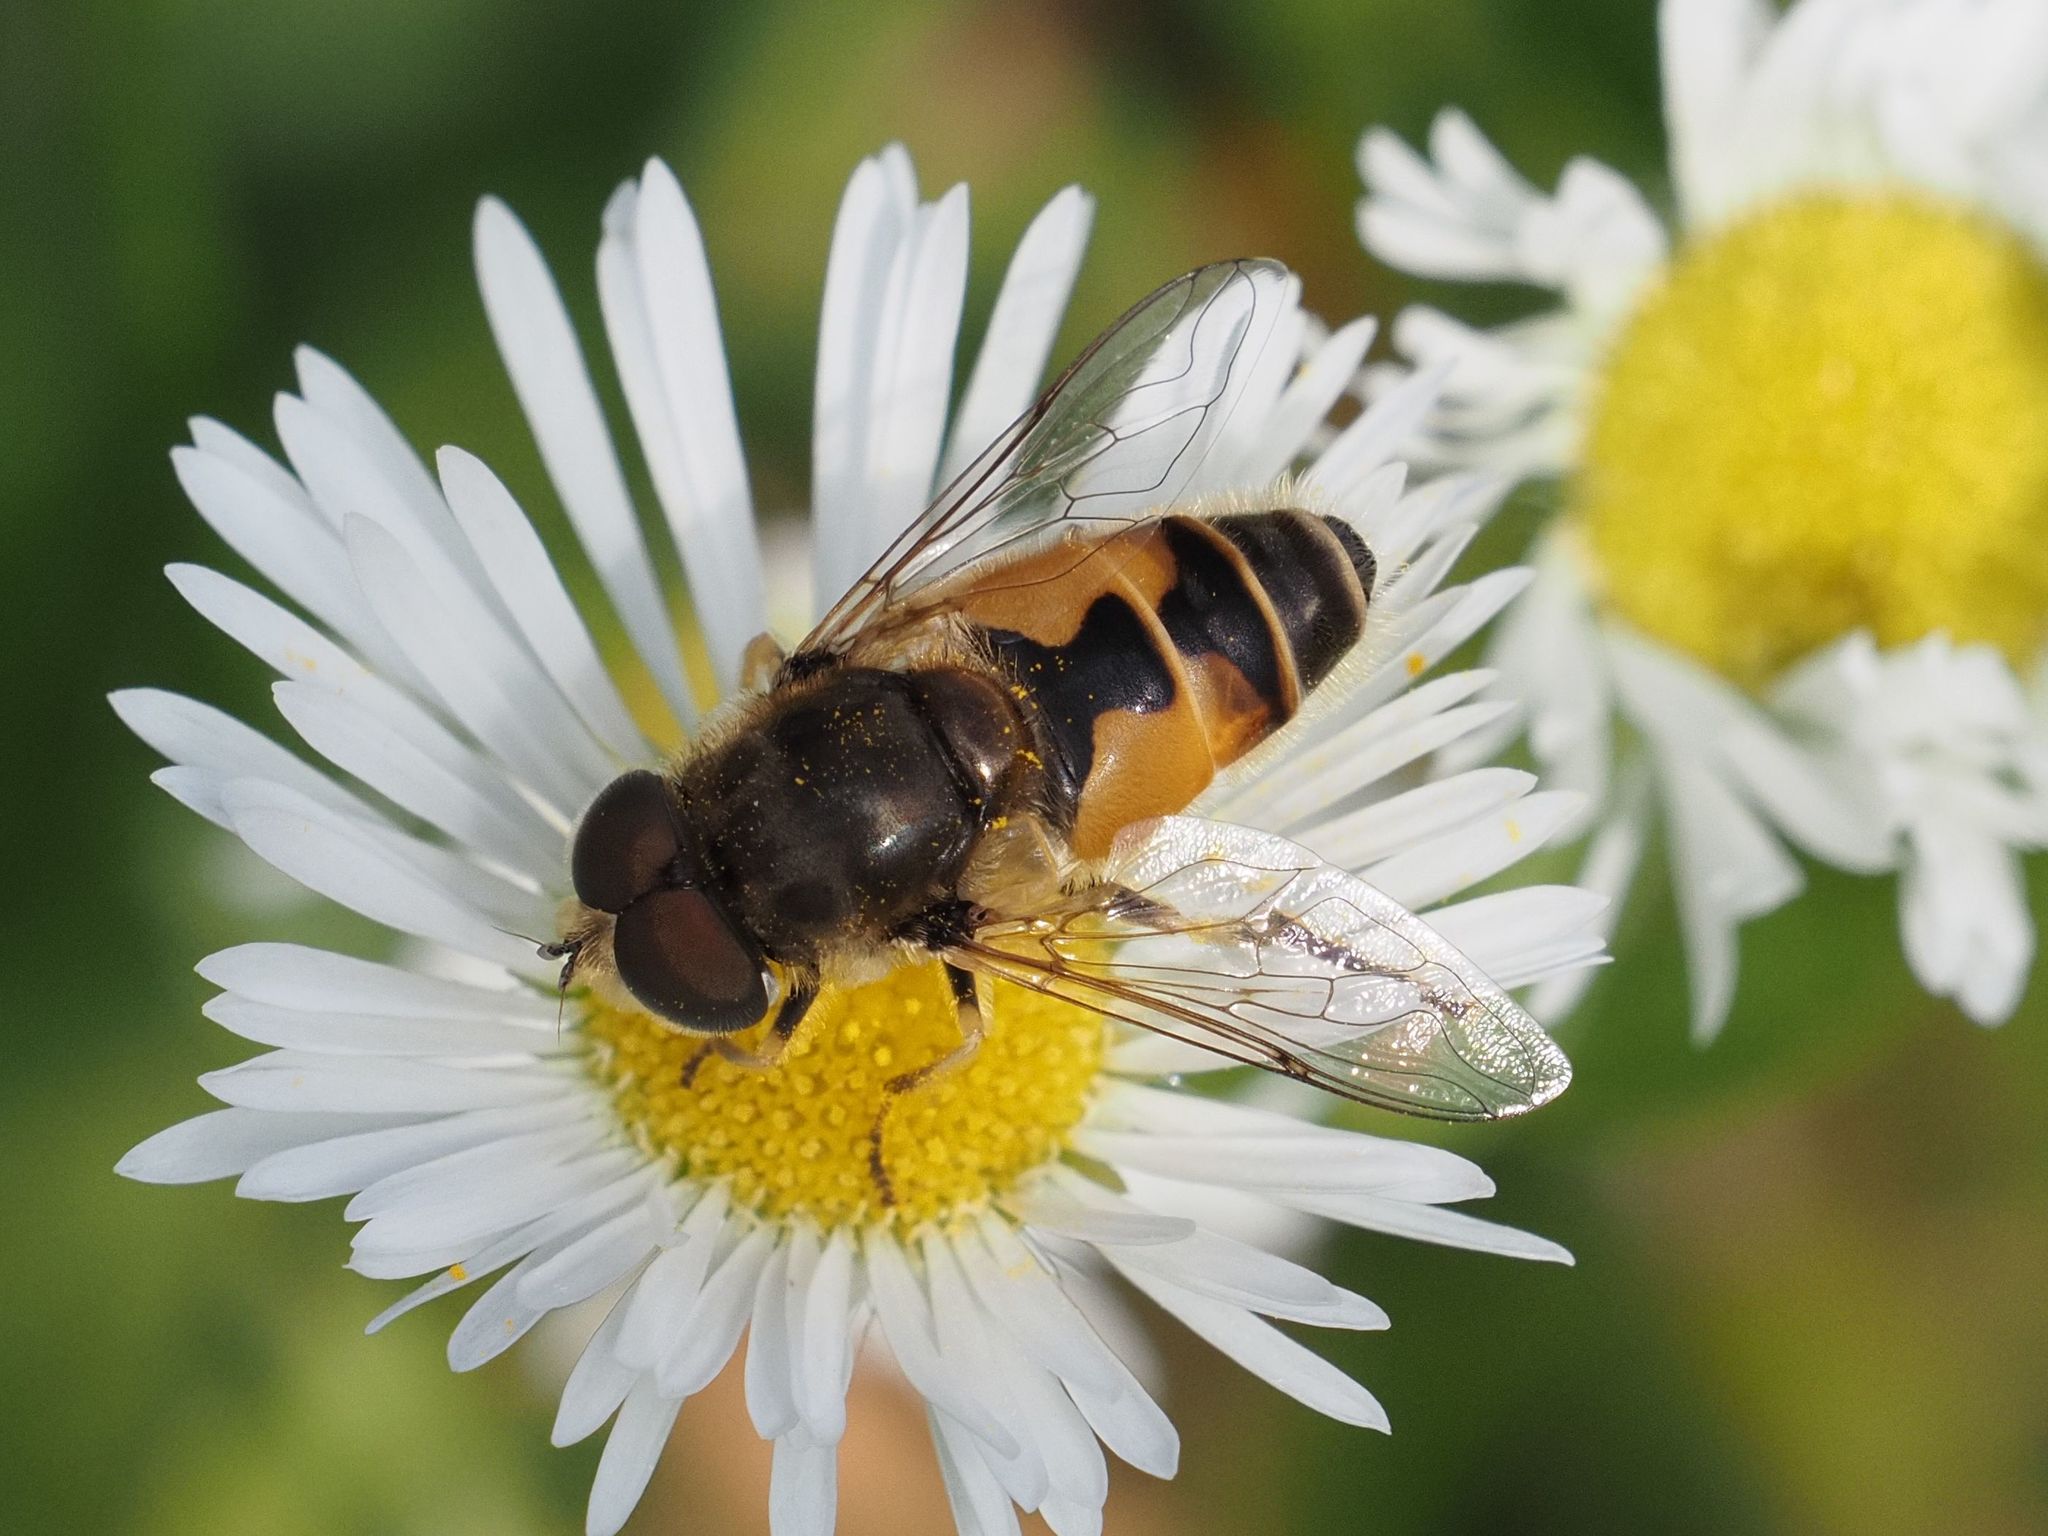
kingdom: Animalia
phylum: Arthropoda
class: Insecta
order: Diptera
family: Syrphidae
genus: Eristalis
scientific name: Eristalis arbustorum
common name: Hover fly
